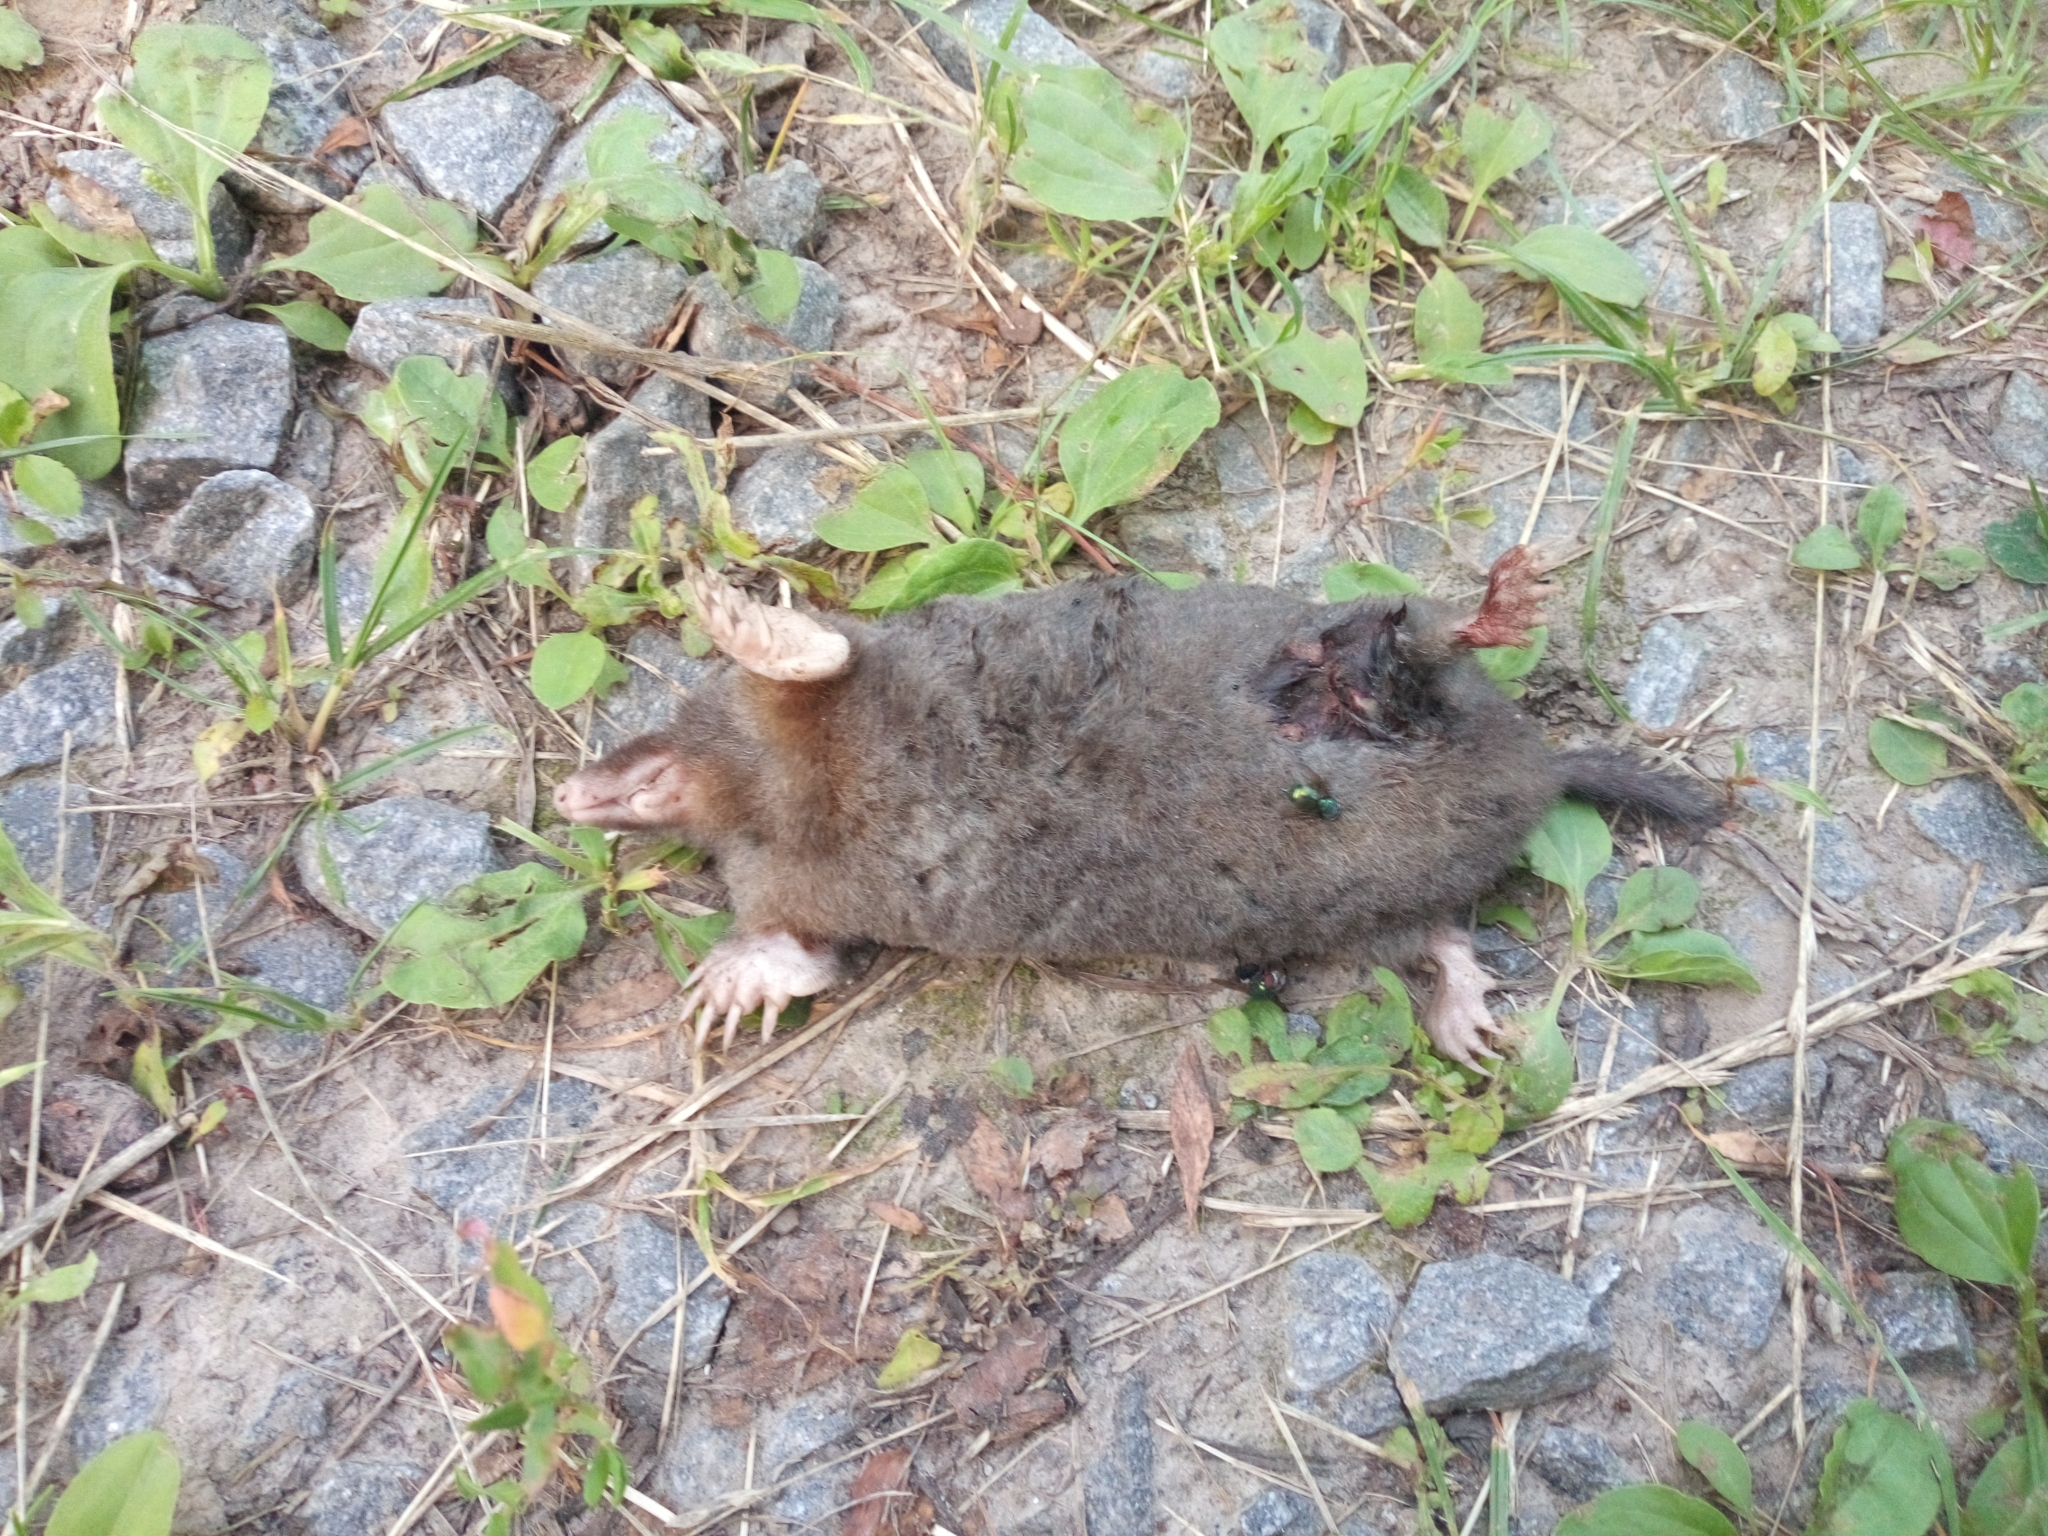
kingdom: Animalia
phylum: Chordata
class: Mammalia
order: Soricomorpha
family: Talpidae
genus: Talpa
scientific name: Talpa europaea
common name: European mole
